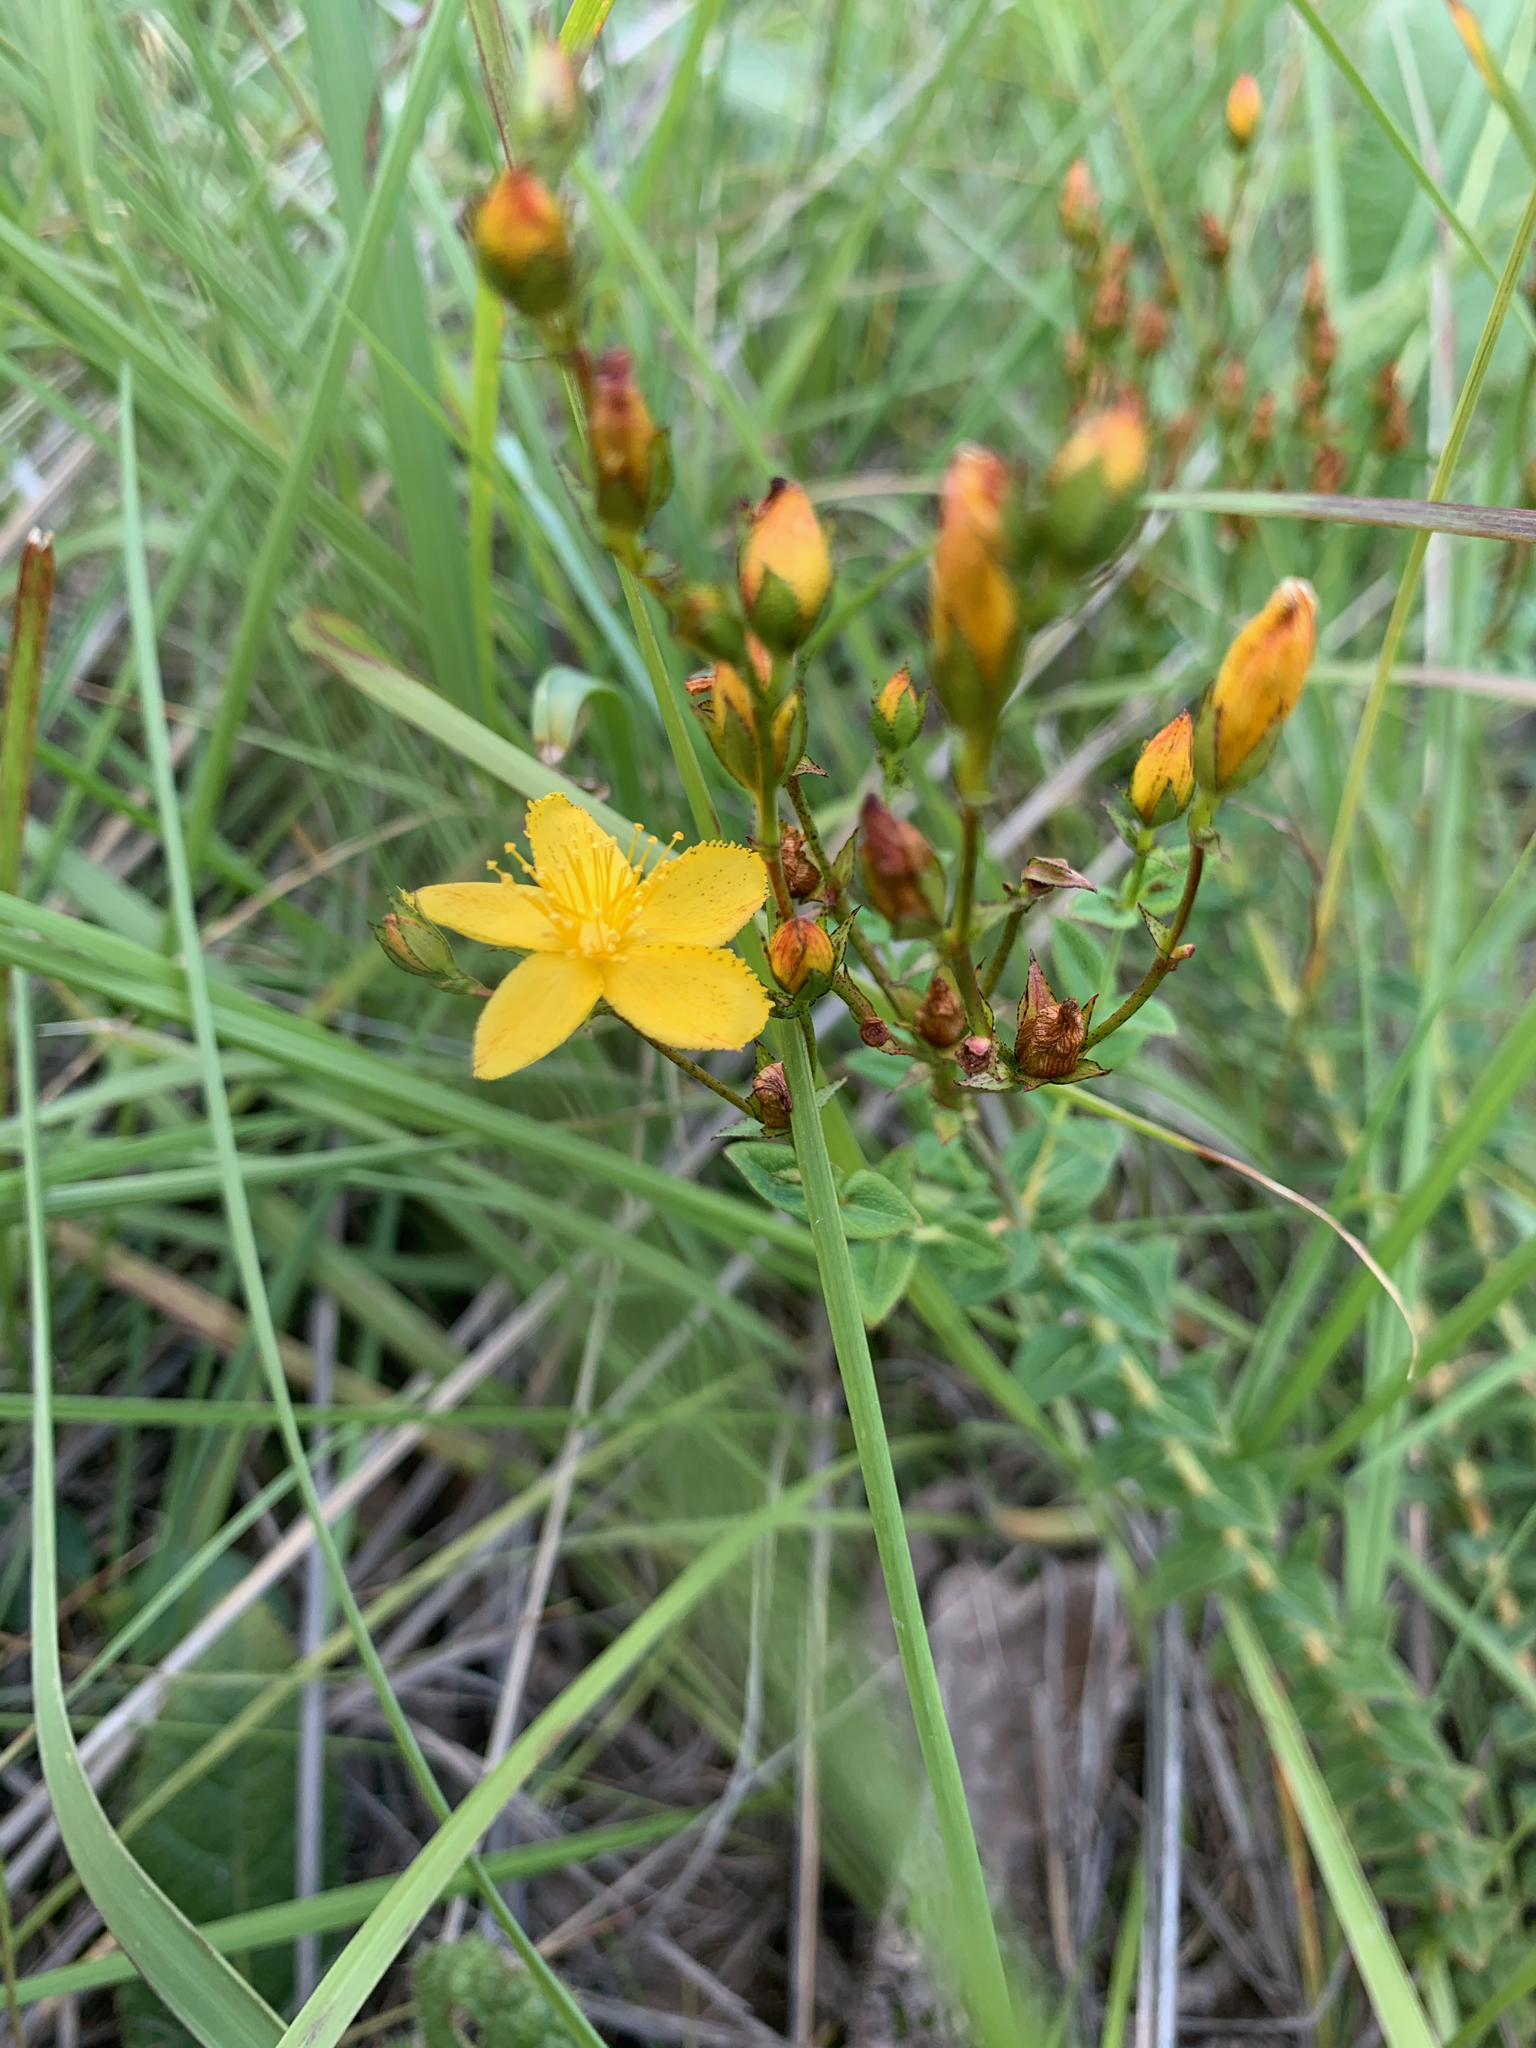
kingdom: Plantae
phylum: Tracheophyta
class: Magnoliopsida
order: Malpighiales
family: Hypericaceae
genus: Hypericum
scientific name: Hypericum aethiopicum
